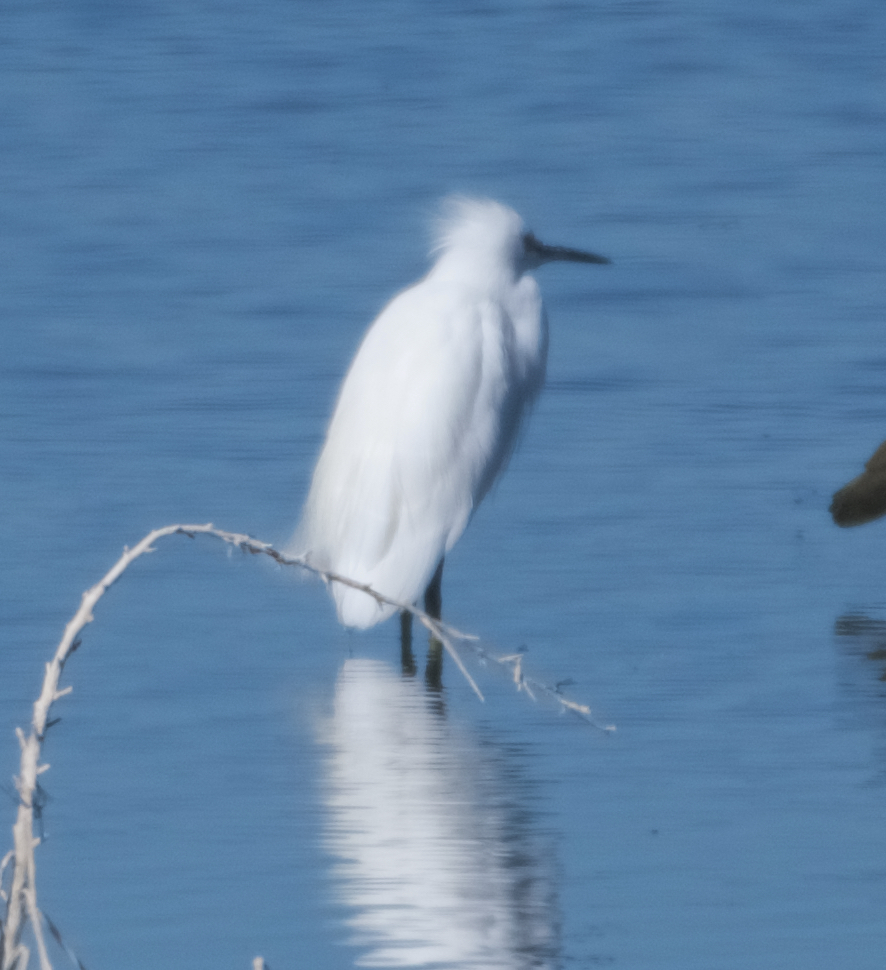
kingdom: Animalia
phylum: Chordata
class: Aves
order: Pelecaniformes
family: Ardeidae
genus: Egretta
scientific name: Egretta thula
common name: Snowy egret
